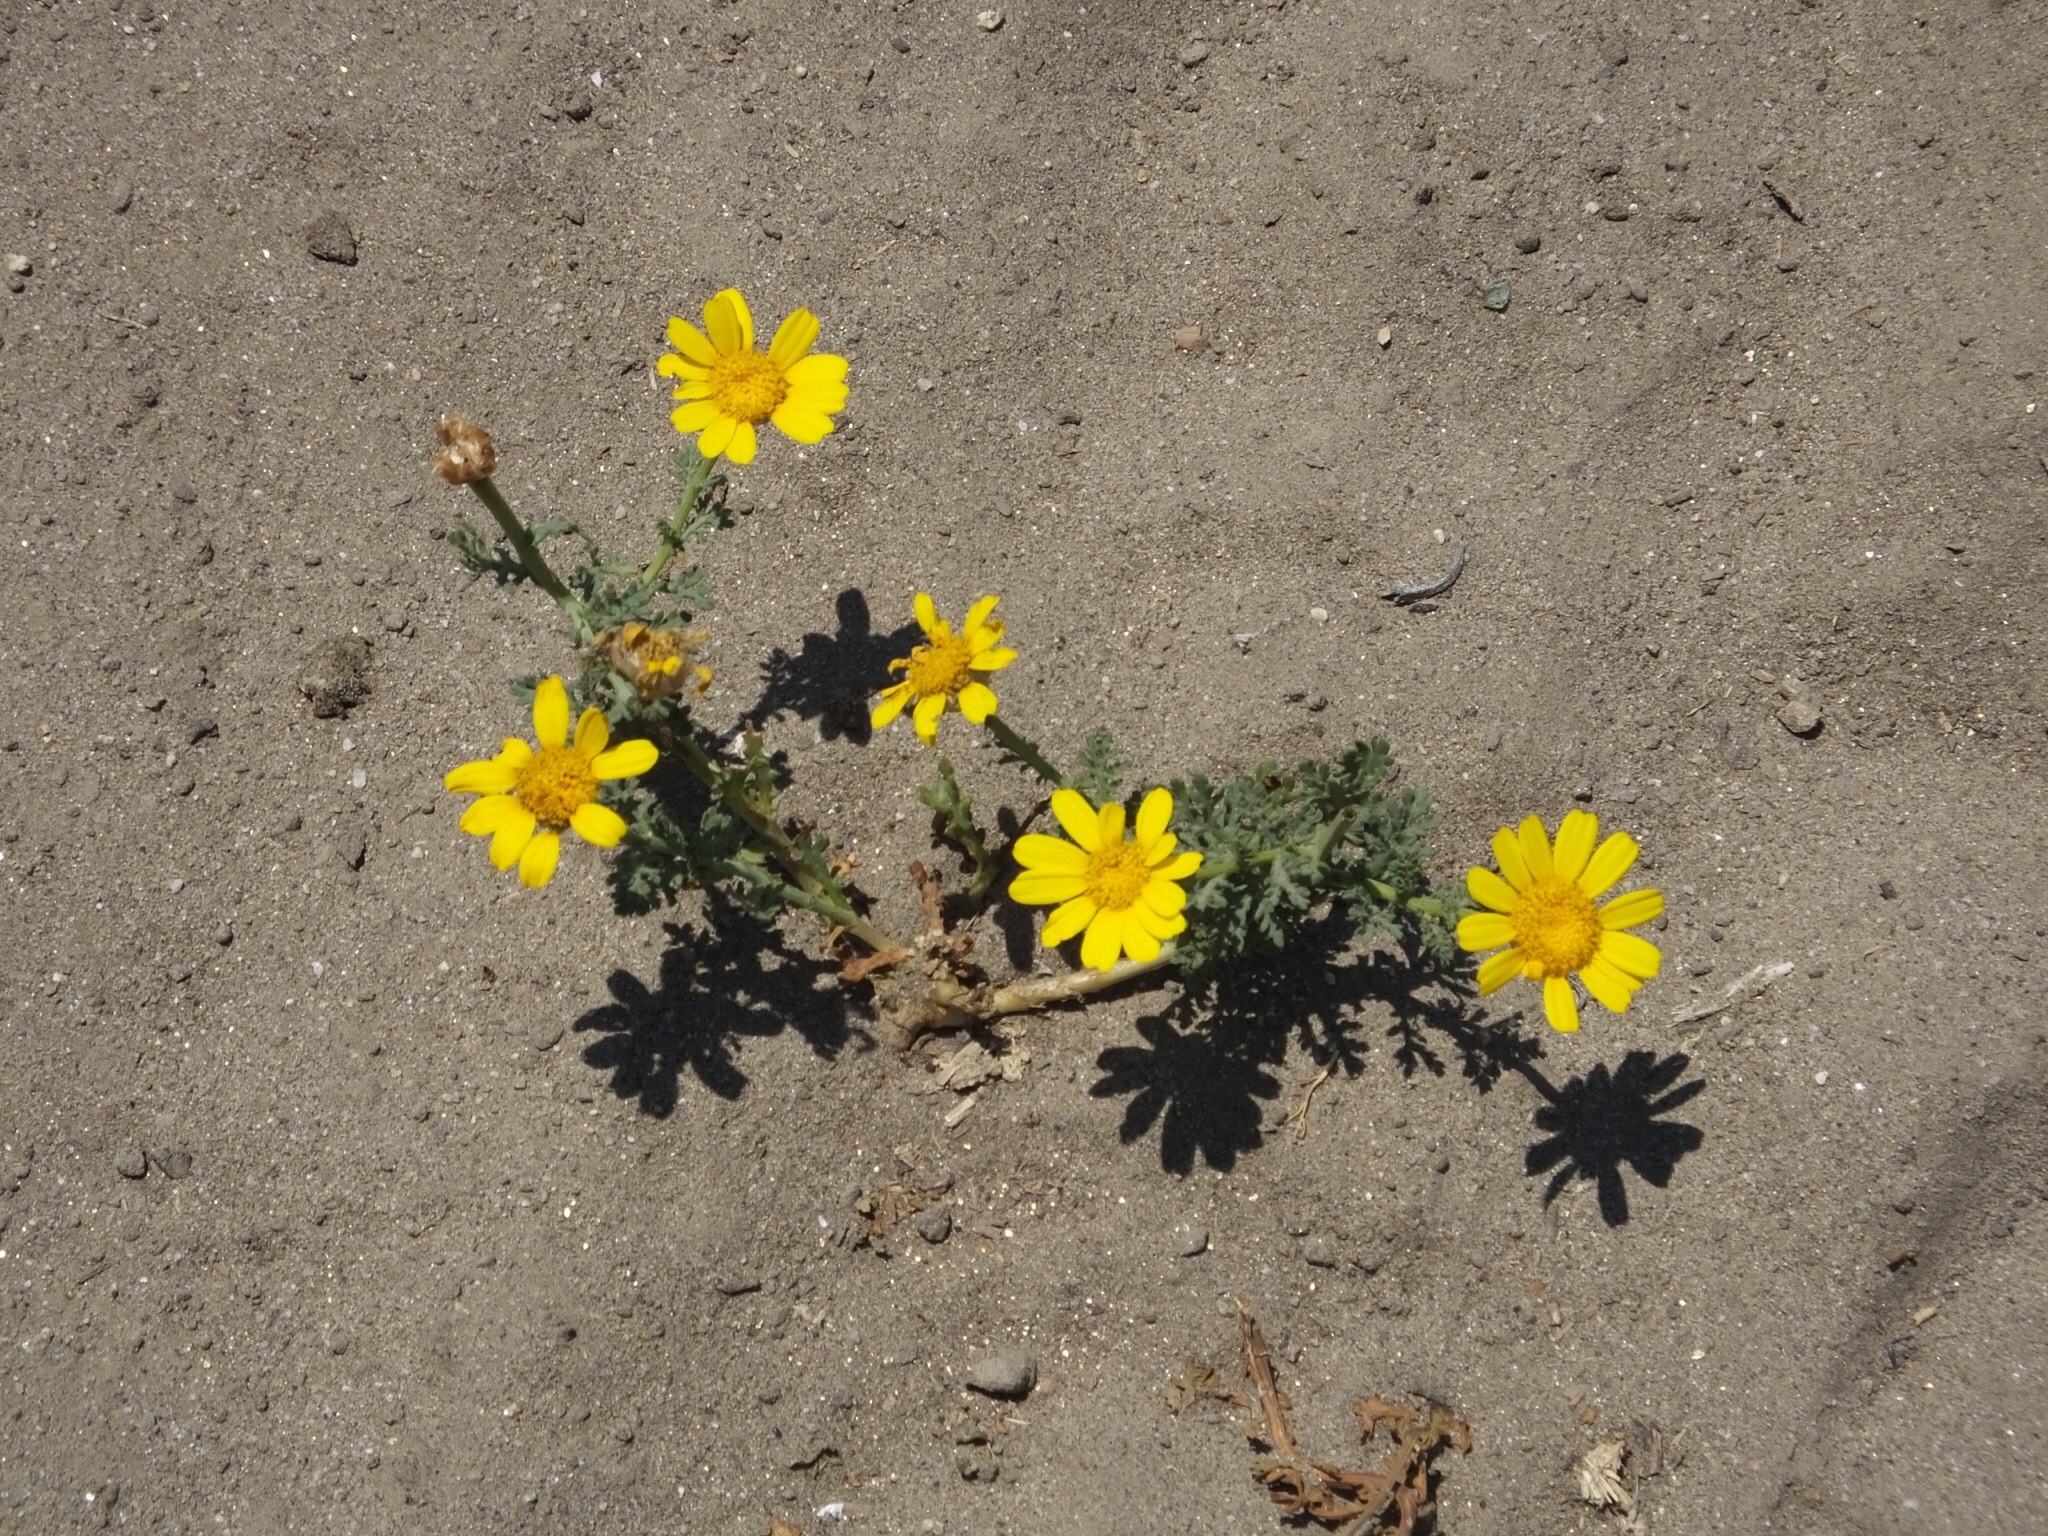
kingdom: Plantae
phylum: Tracheophyta
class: Magnoliopsida
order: Asterales
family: Asteraceae
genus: Glebionis
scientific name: Glebionis coronaria
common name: Crowndaisy
